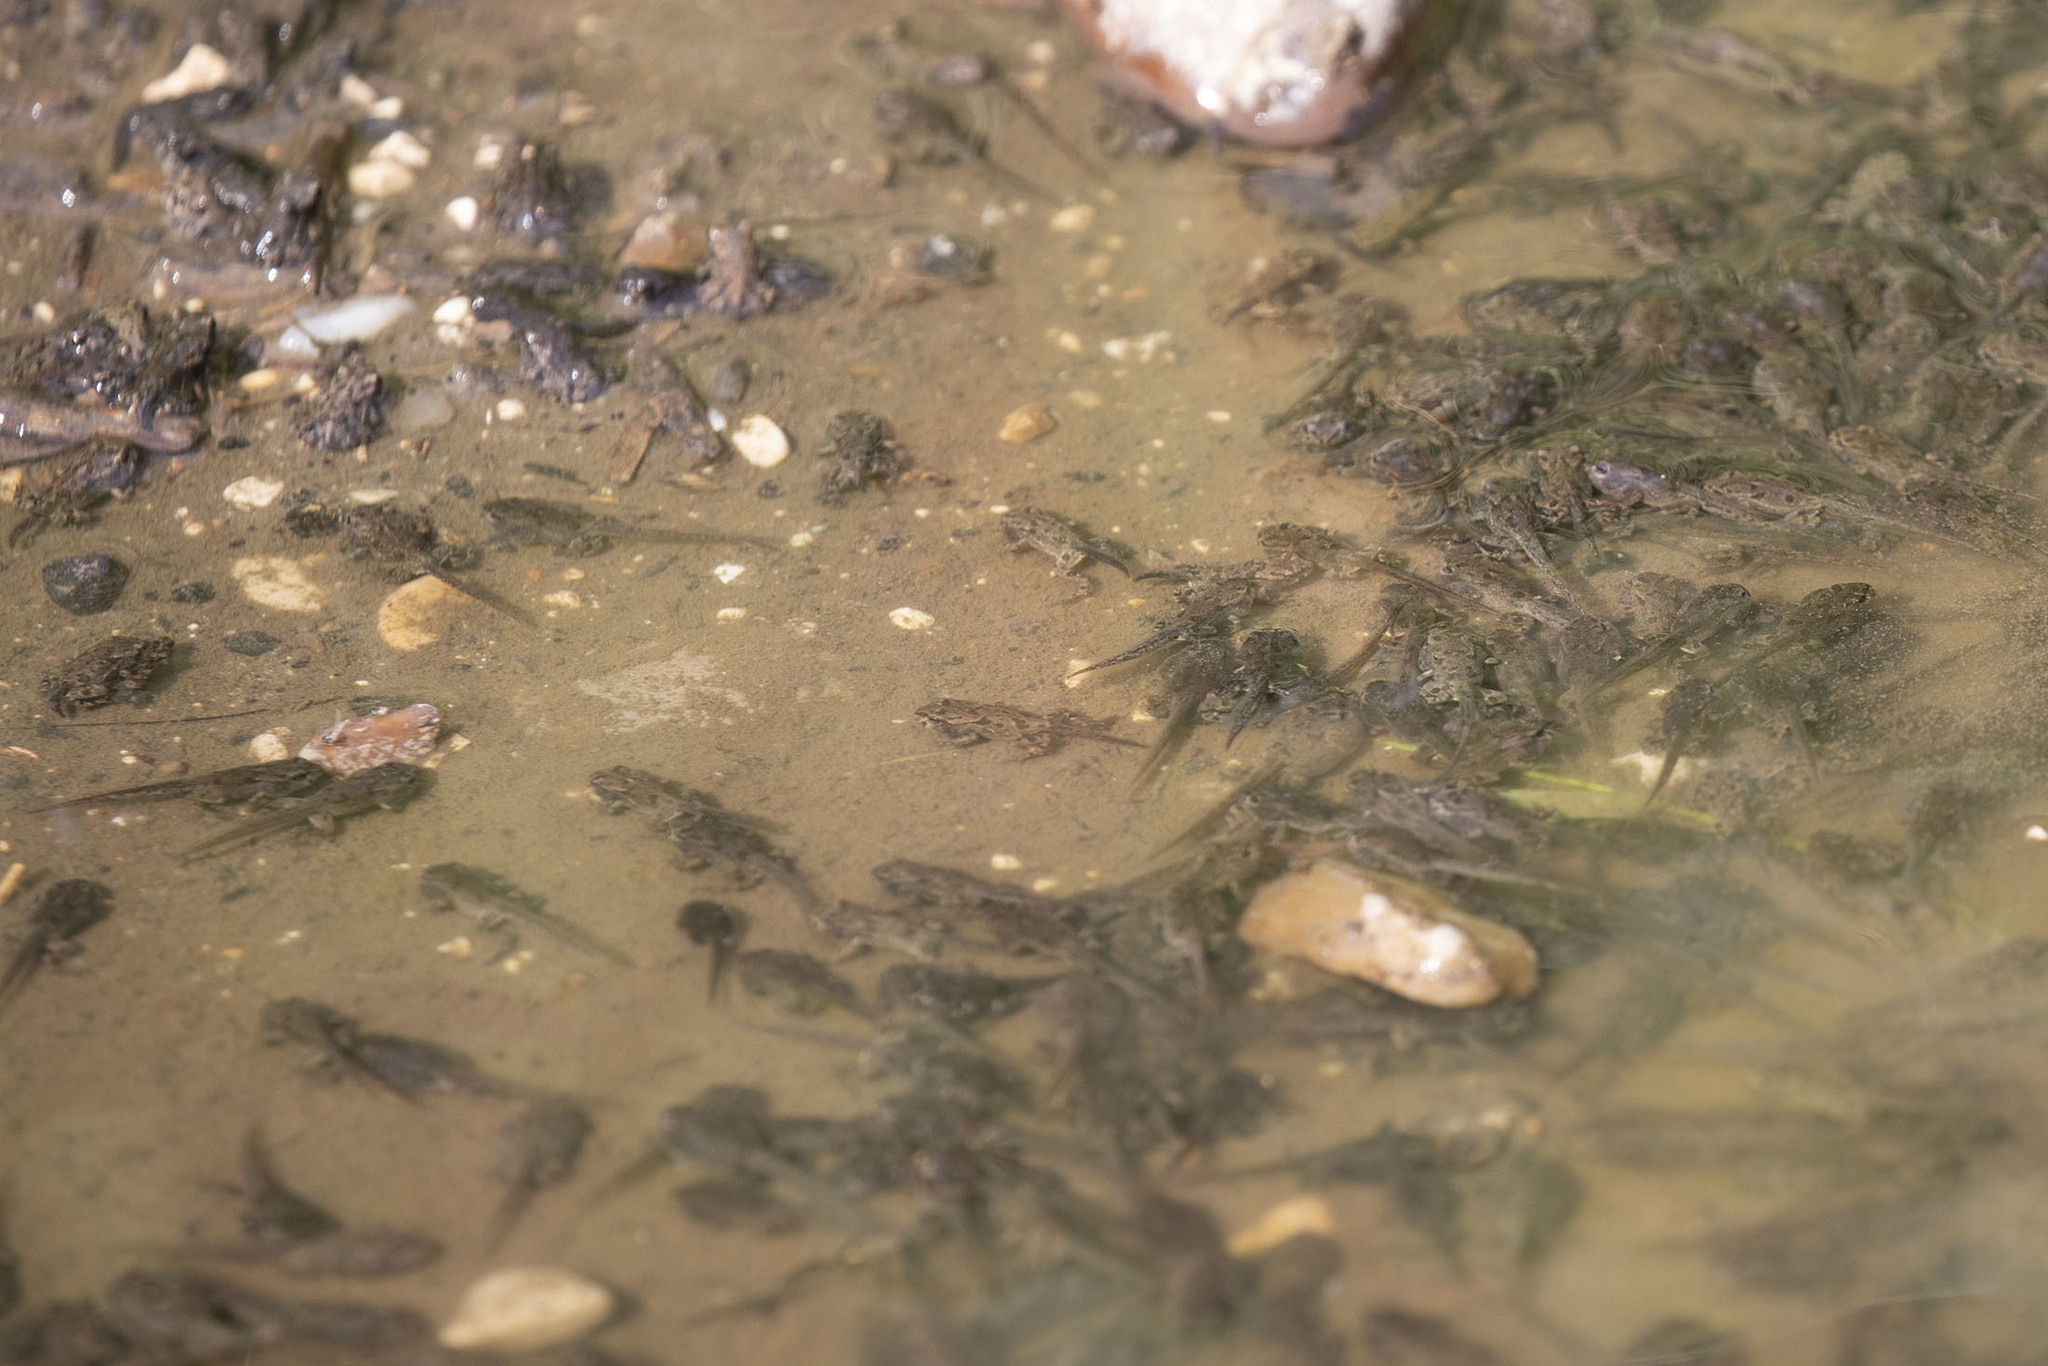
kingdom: Animalia
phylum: Chordata
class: Amphibia
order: Anura
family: Bufonidae
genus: Bufotes
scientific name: Bufotes viridis
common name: European green toad
